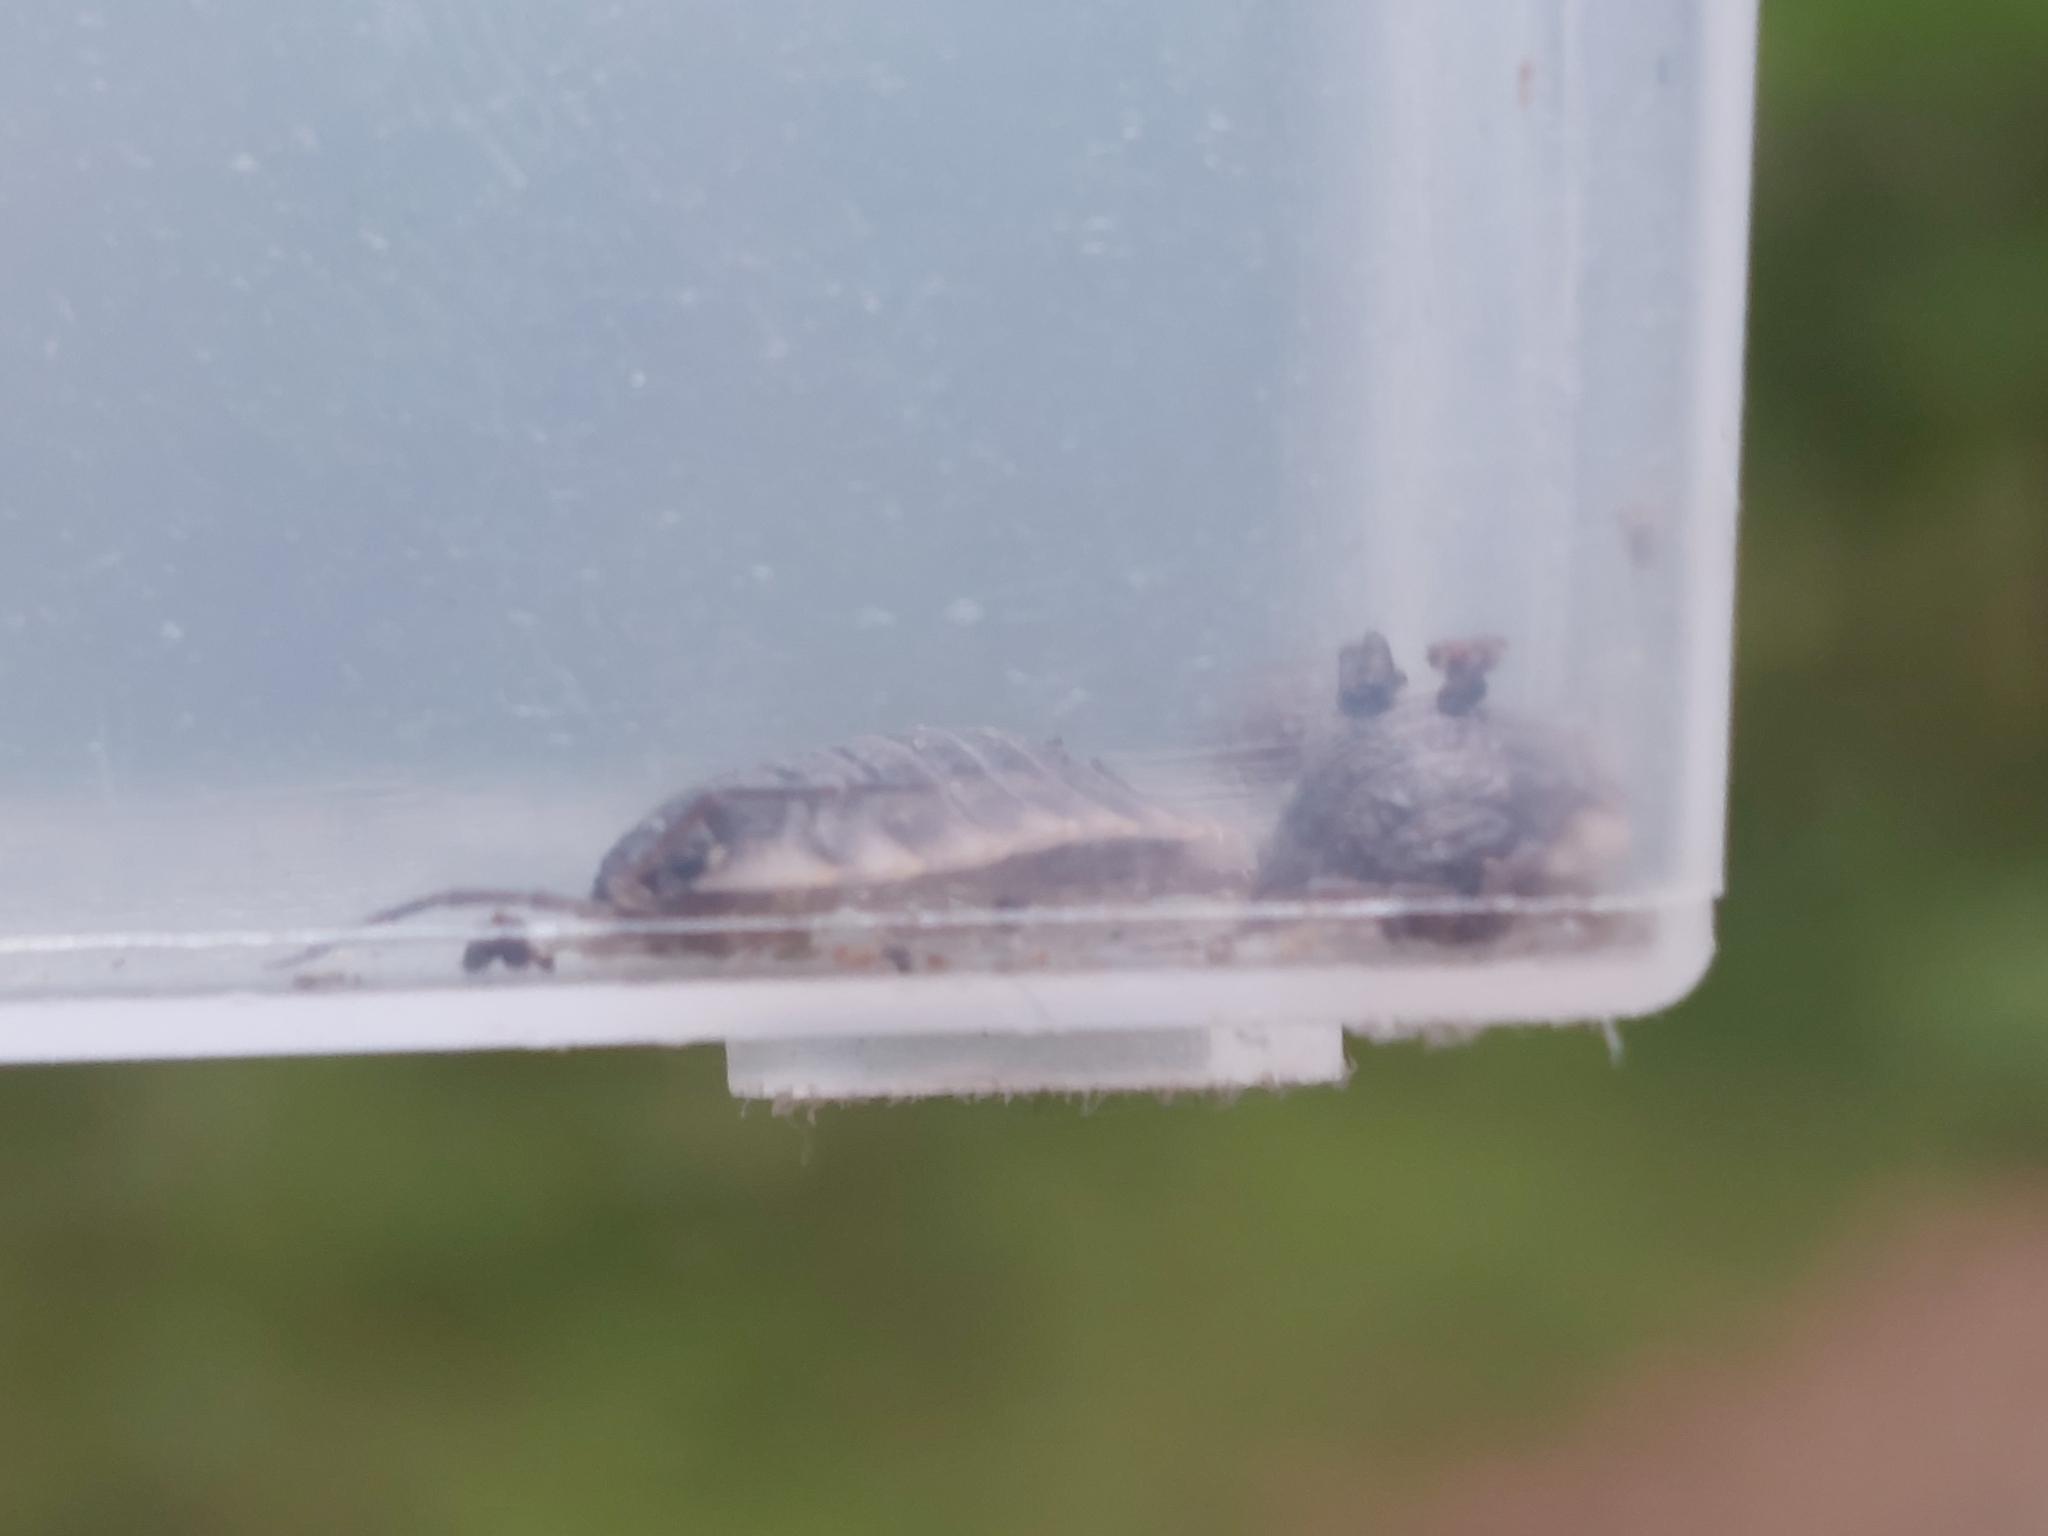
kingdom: Animalia
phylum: Arthropoda
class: Malacostraca
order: Isopoda
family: Oniscidae
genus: Oniscus
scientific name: Oniscus asellus
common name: Common shiny woodlouse
